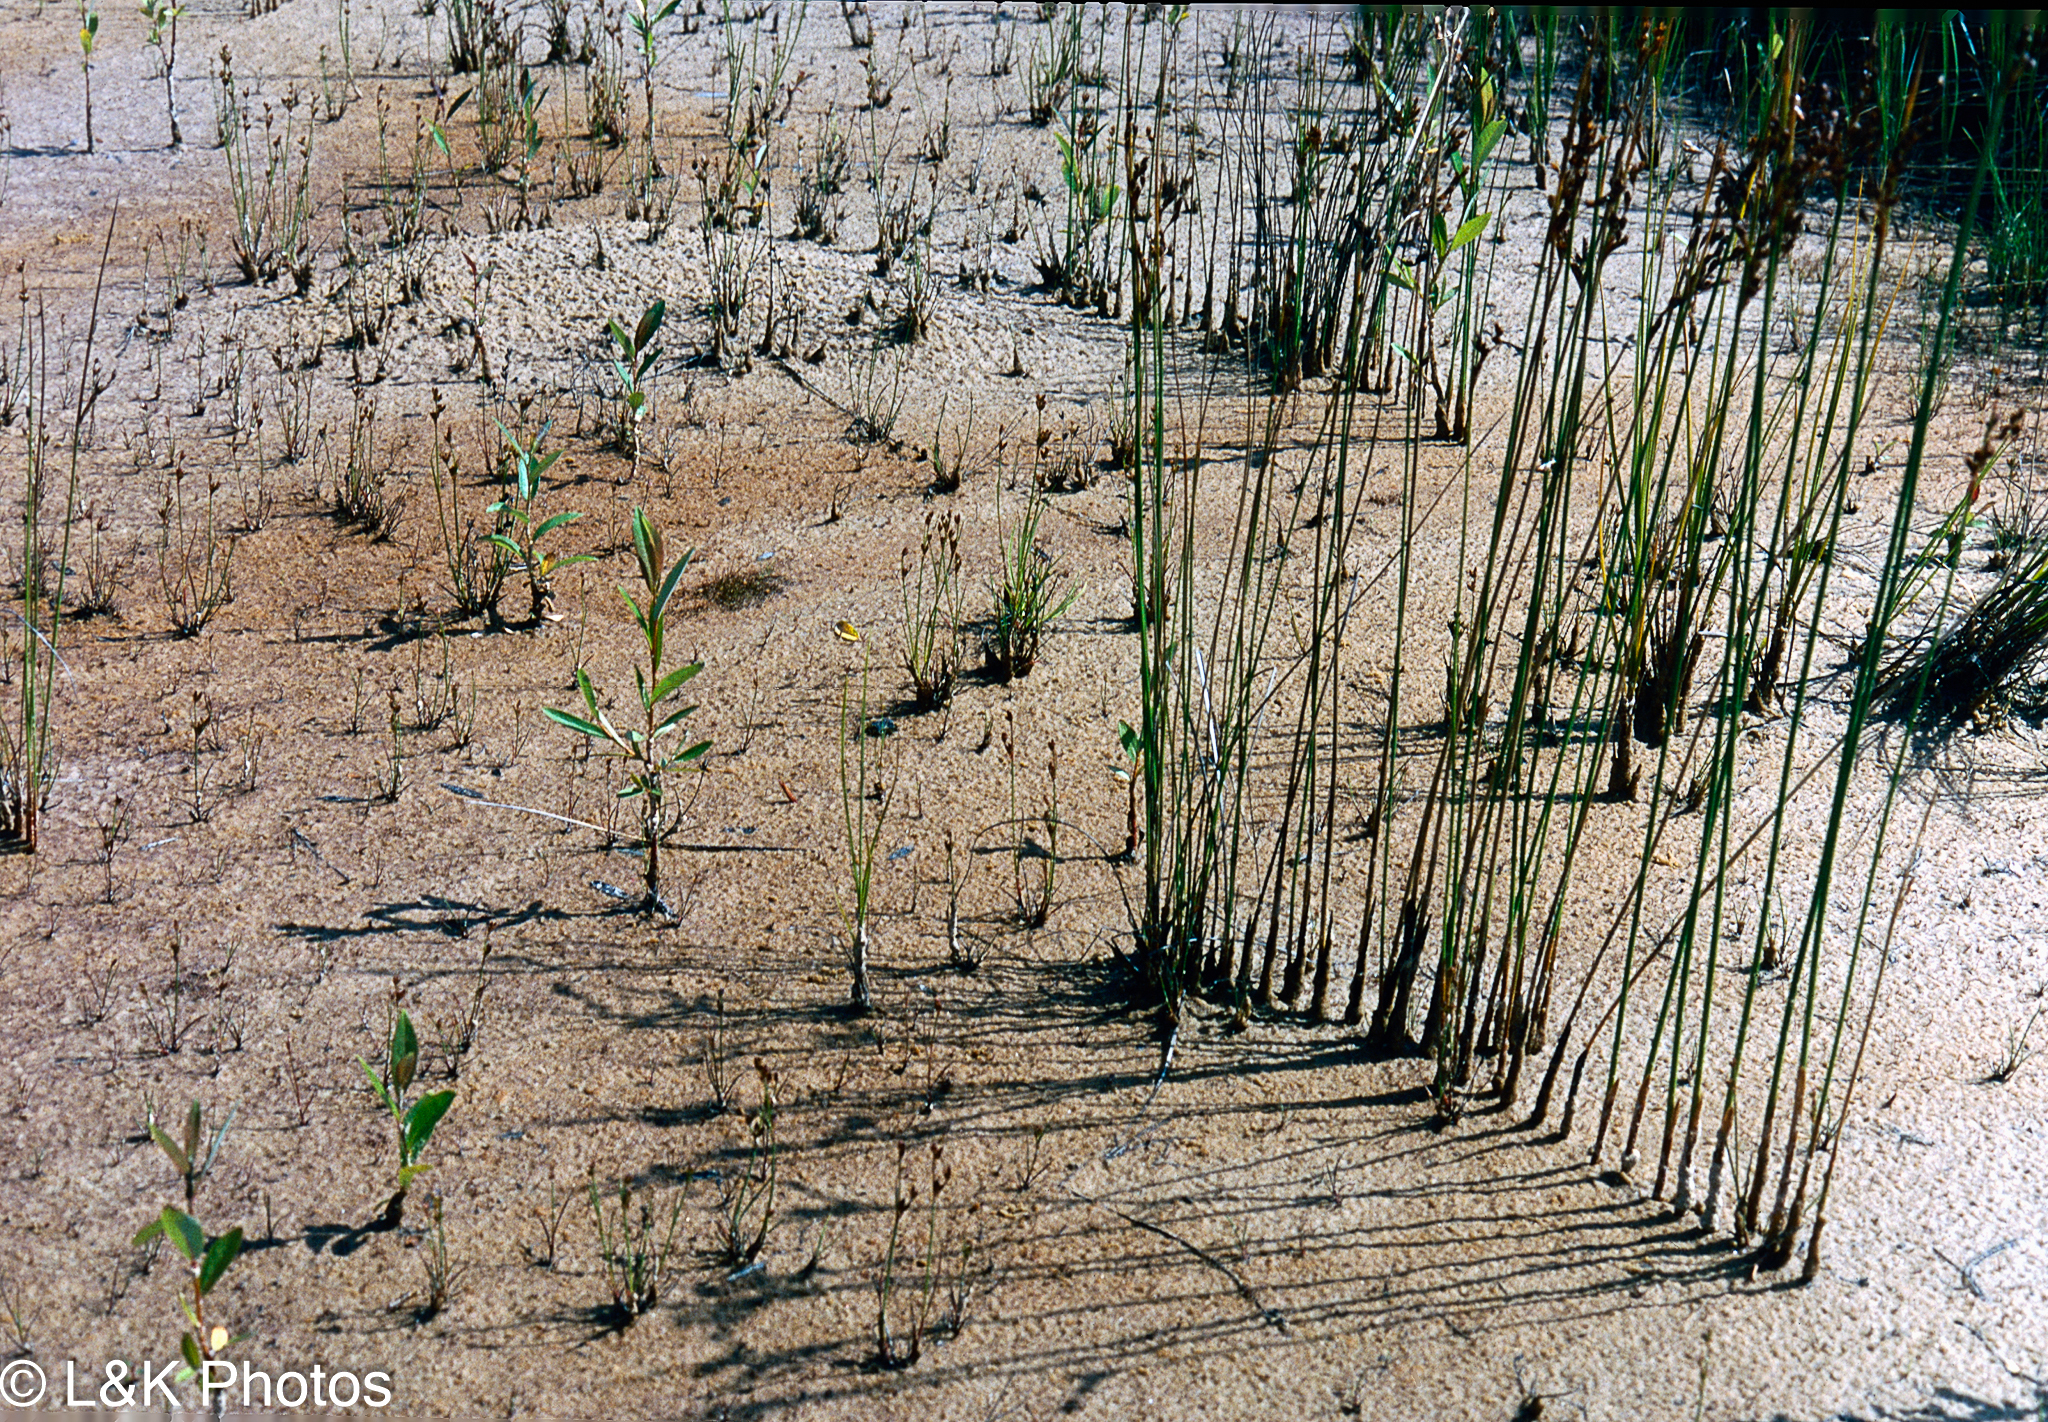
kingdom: Plantae
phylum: Tracheophyta
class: Liliopsida
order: Poales
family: Juncaceae
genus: Juncus
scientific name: Juncus balticus
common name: Baltic rush
